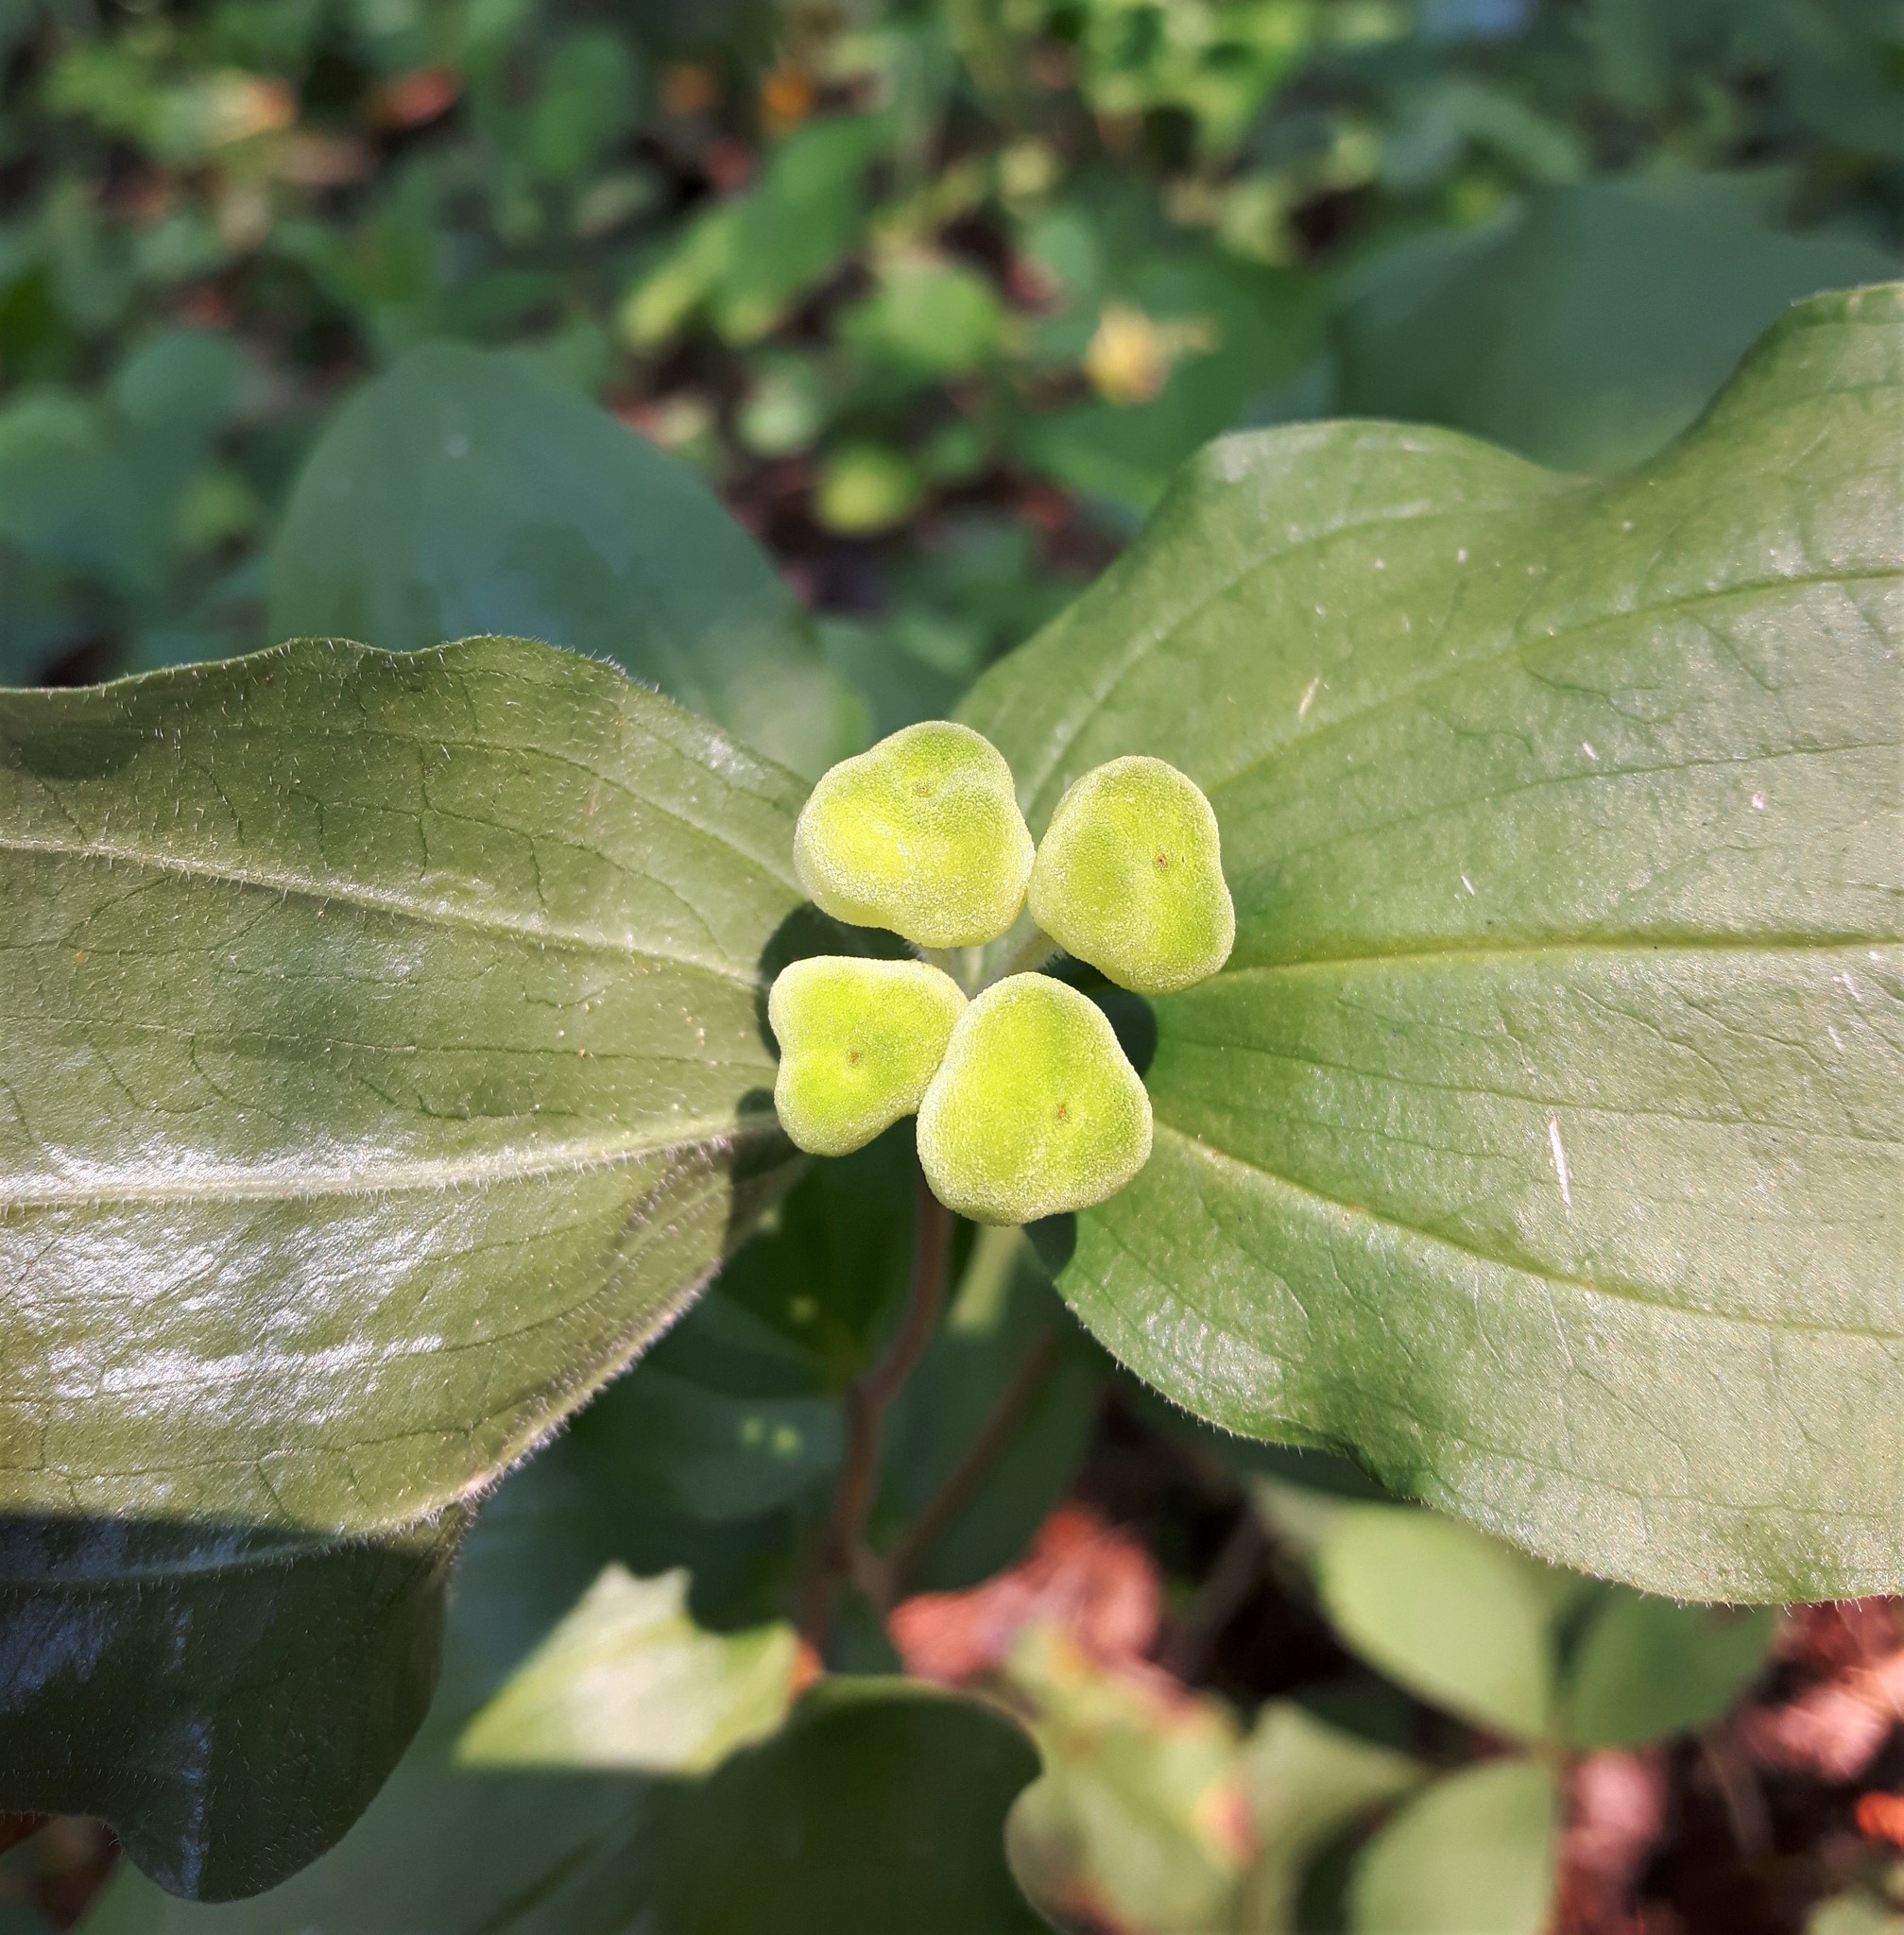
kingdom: Plantae
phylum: Tracheophyta
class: Liliopsida
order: Liliales
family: Liliaceae
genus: Prosartes
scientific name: Prosartes trachycarpa
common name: Rough-fruit fairy-bells
